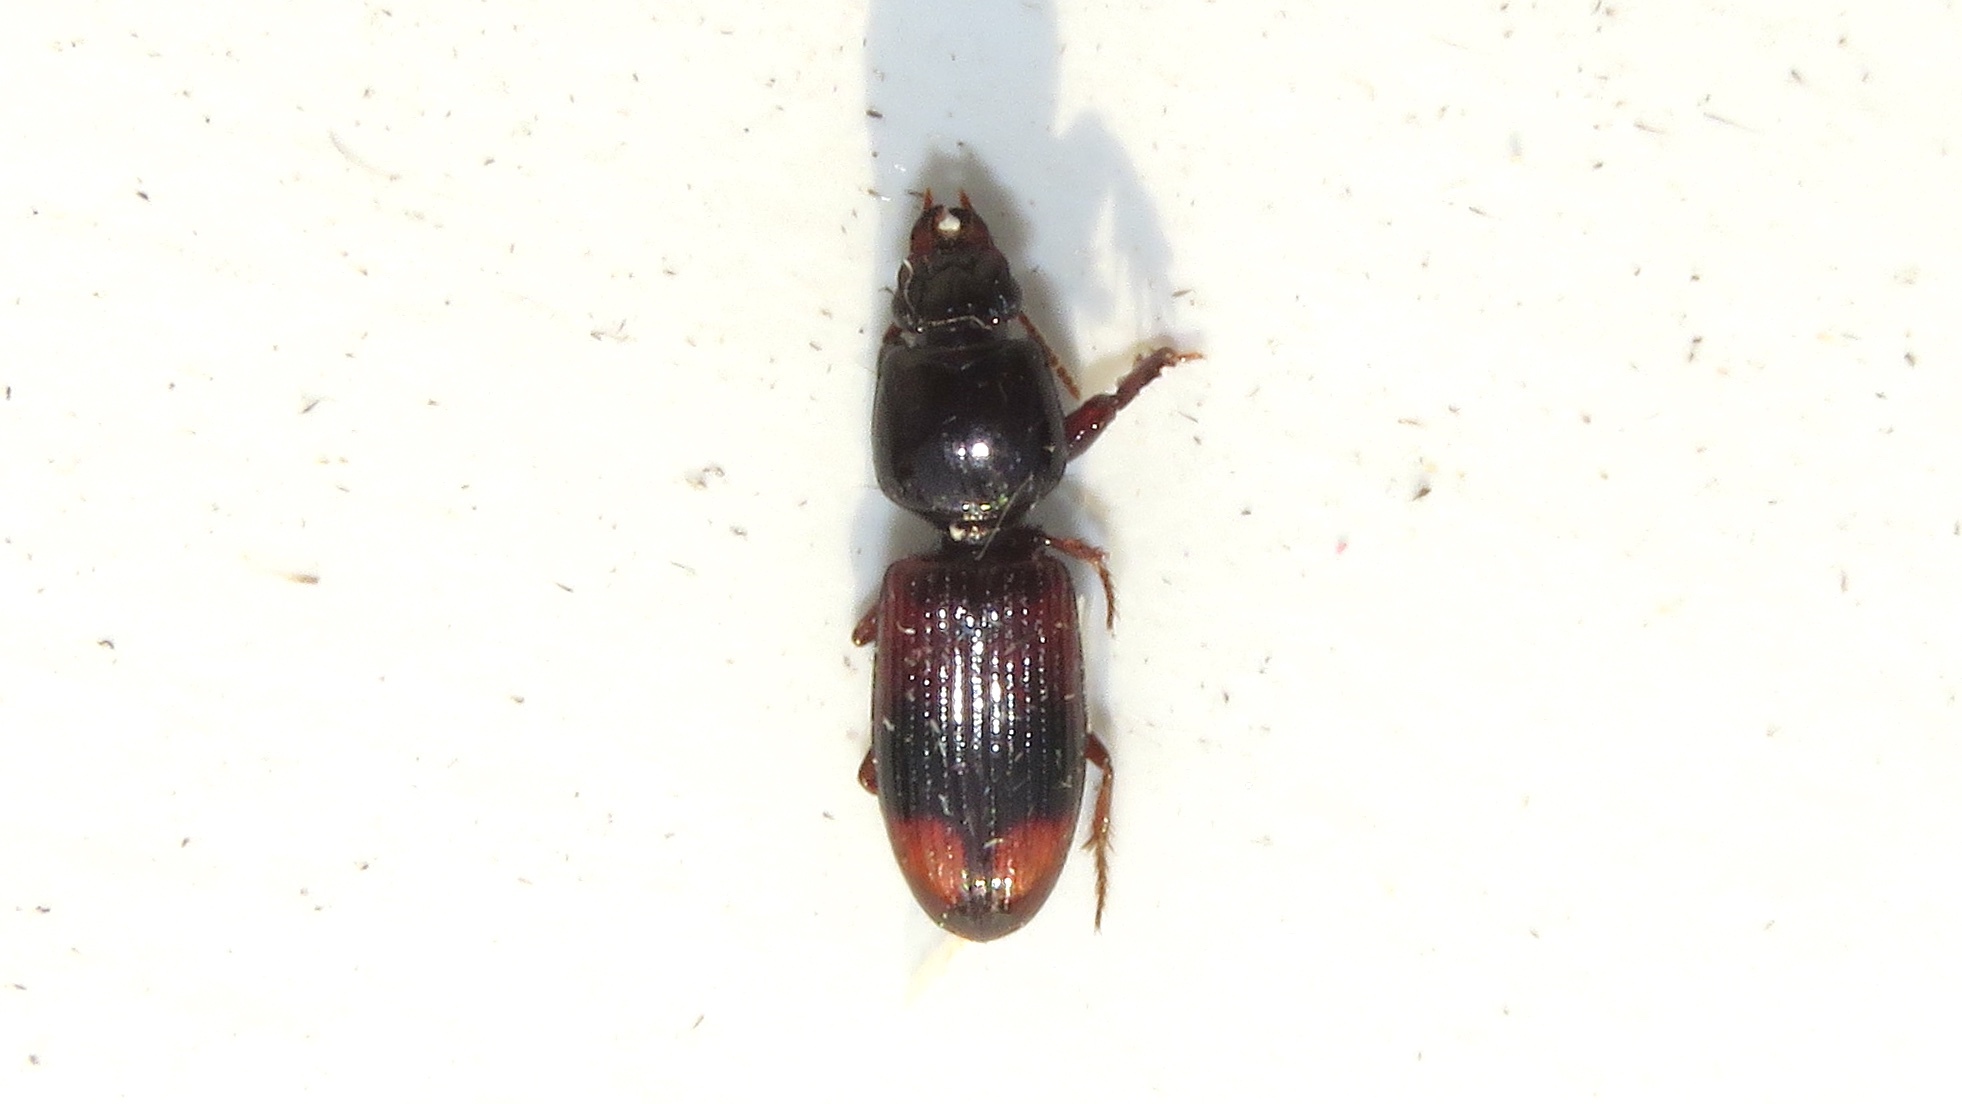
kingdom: Animalia
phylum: Arthropoda
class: Insecta
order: Coleoptera
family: Carabidae
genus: Clivina
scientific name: Clivina bipustulata
